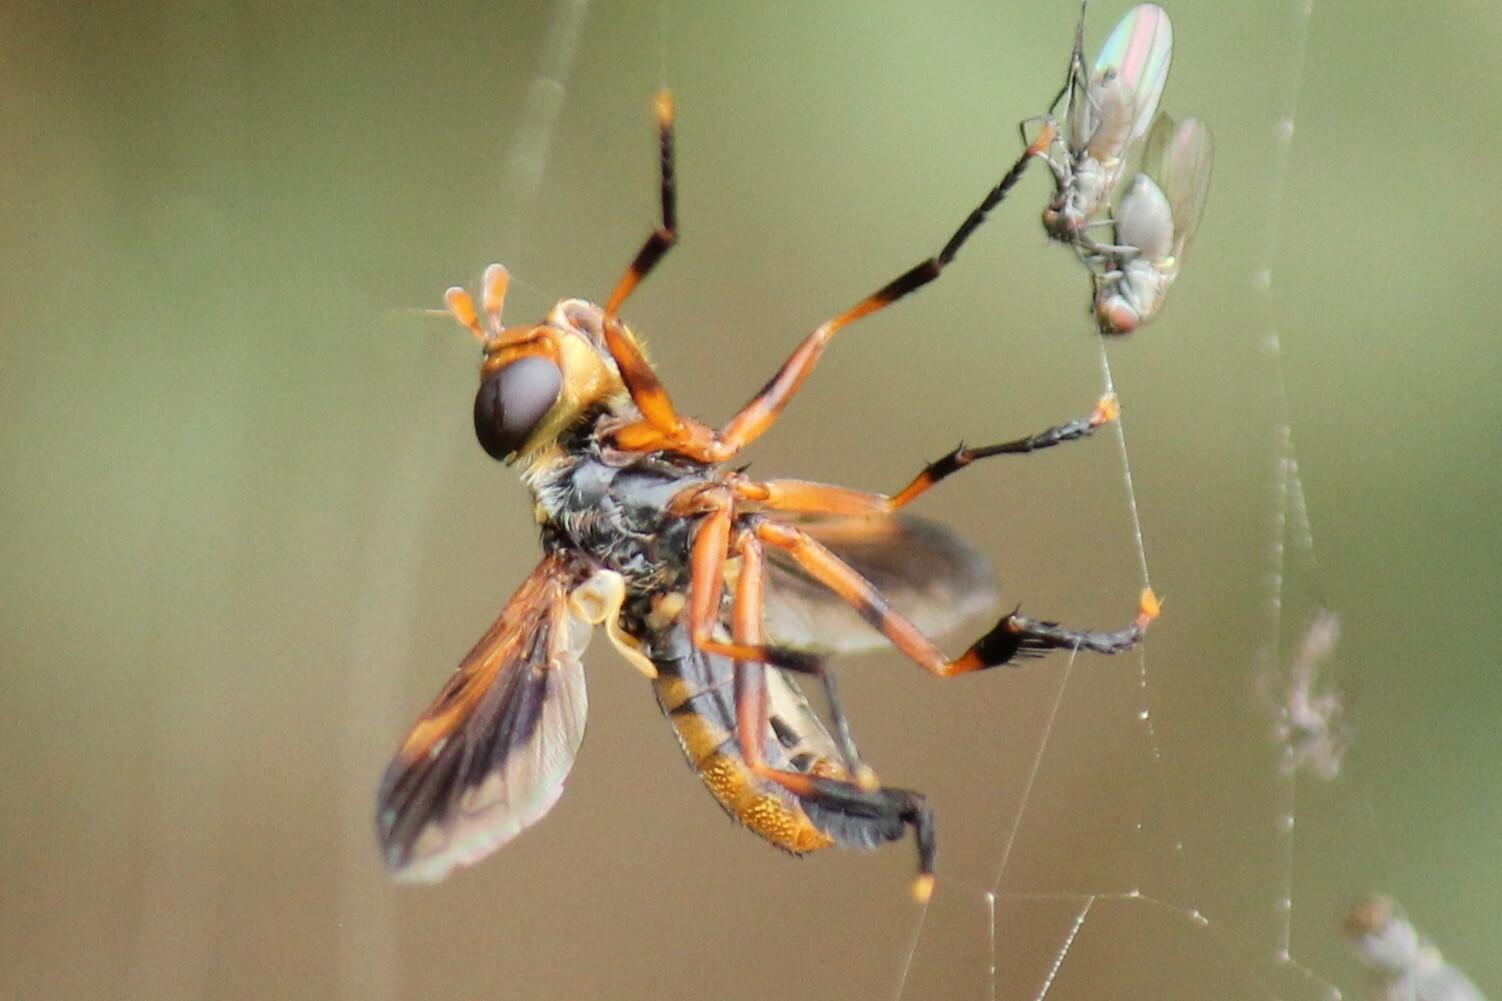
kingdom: Animalia
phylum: Arthropoda
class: Insecta
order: Diptera
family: Tachinidae
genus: Trichopoda
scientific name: Trichopoda indivisa
